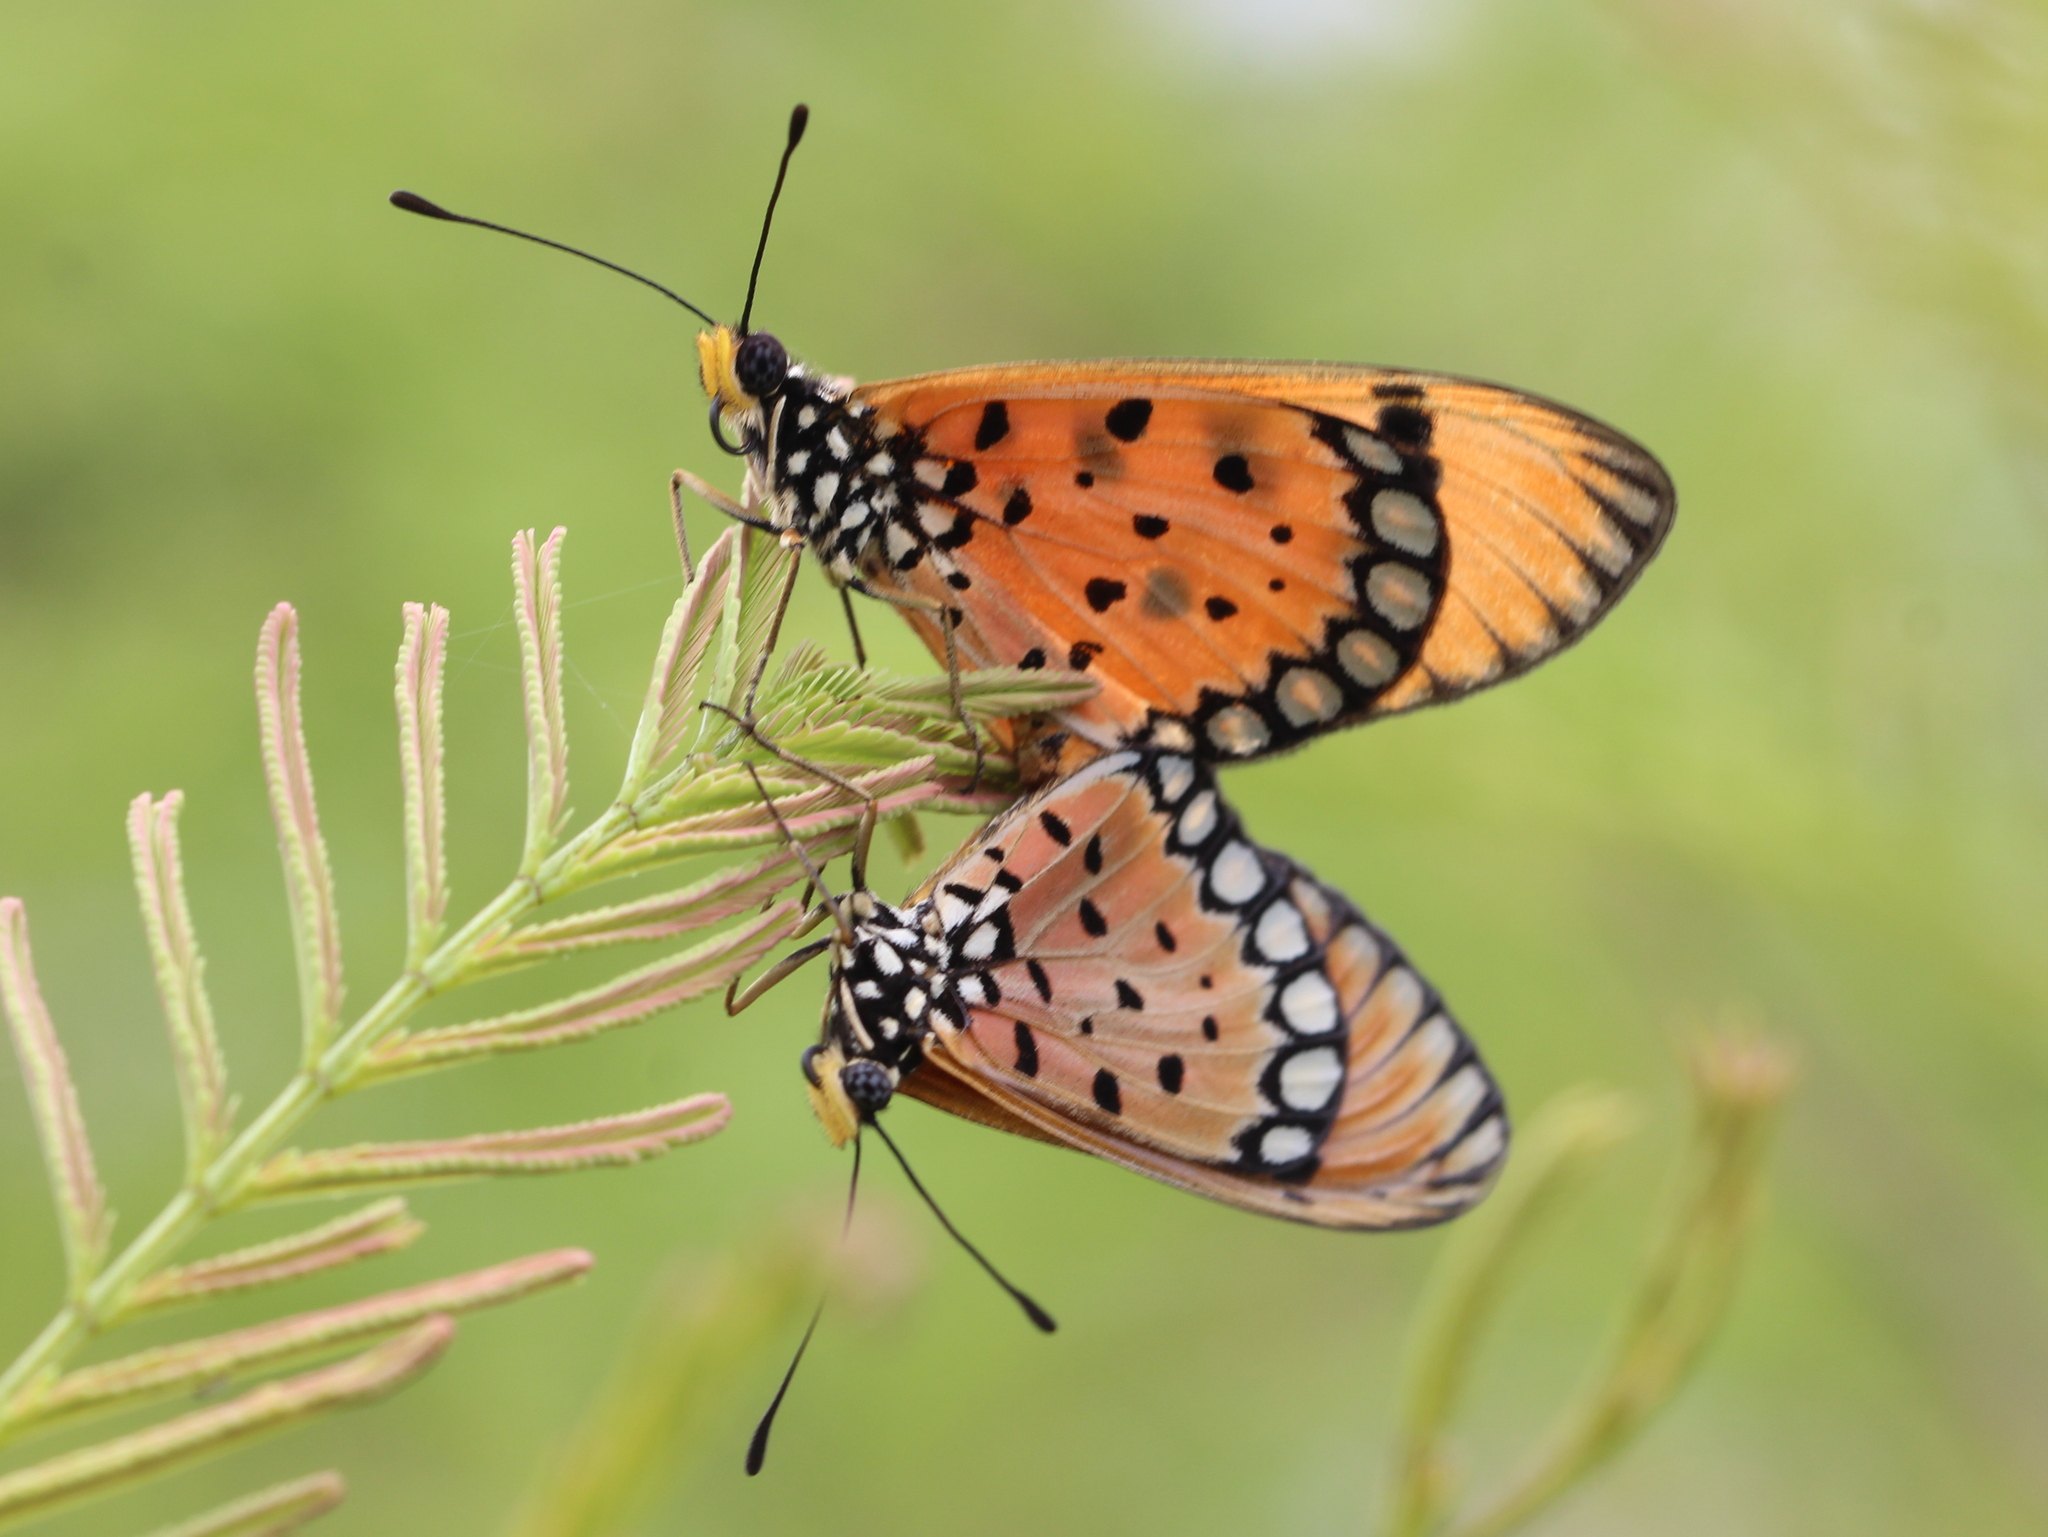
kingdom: Animalia
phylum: Arthropoda
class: Insecta
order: Lepidoptera
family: Nymphalidae
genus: Acraea
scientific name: Acraea terpsicore
